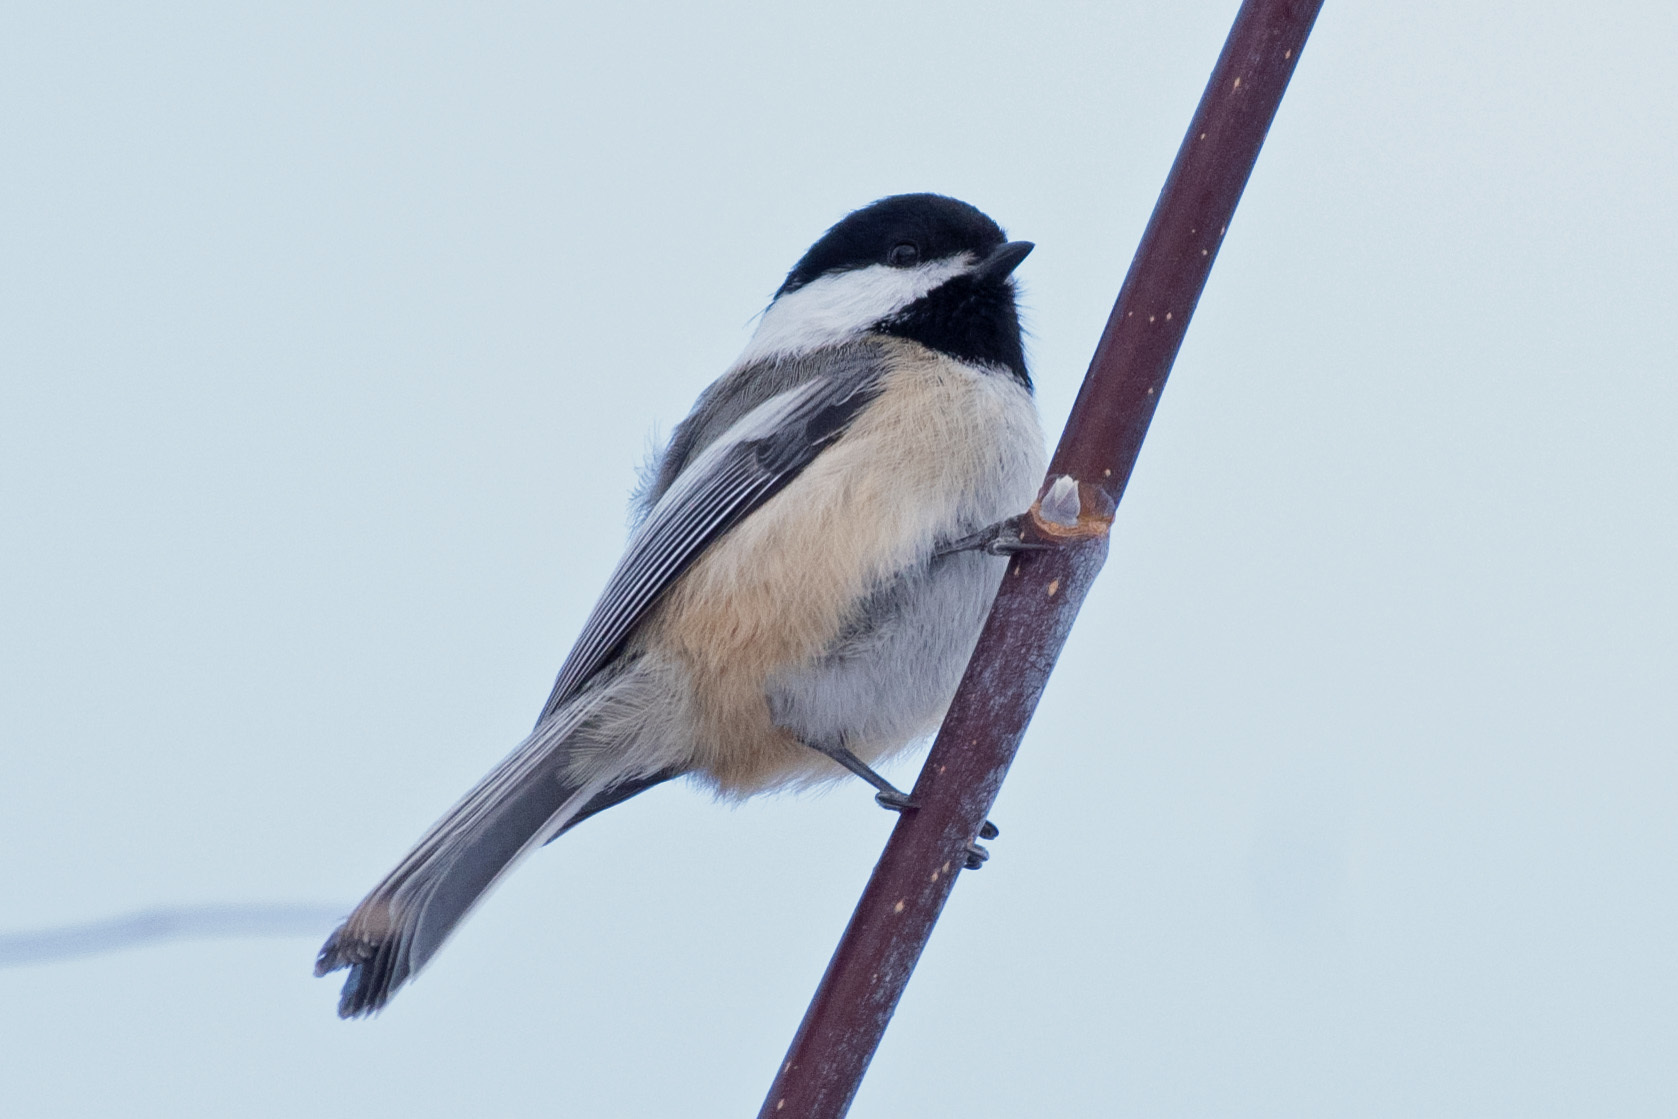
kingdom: Animalia
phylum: Chordata
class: Aves
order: Passeriformes
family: Paridae
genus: Poecile
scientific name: Poecile atricapillus
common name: Black-capped chickadee
